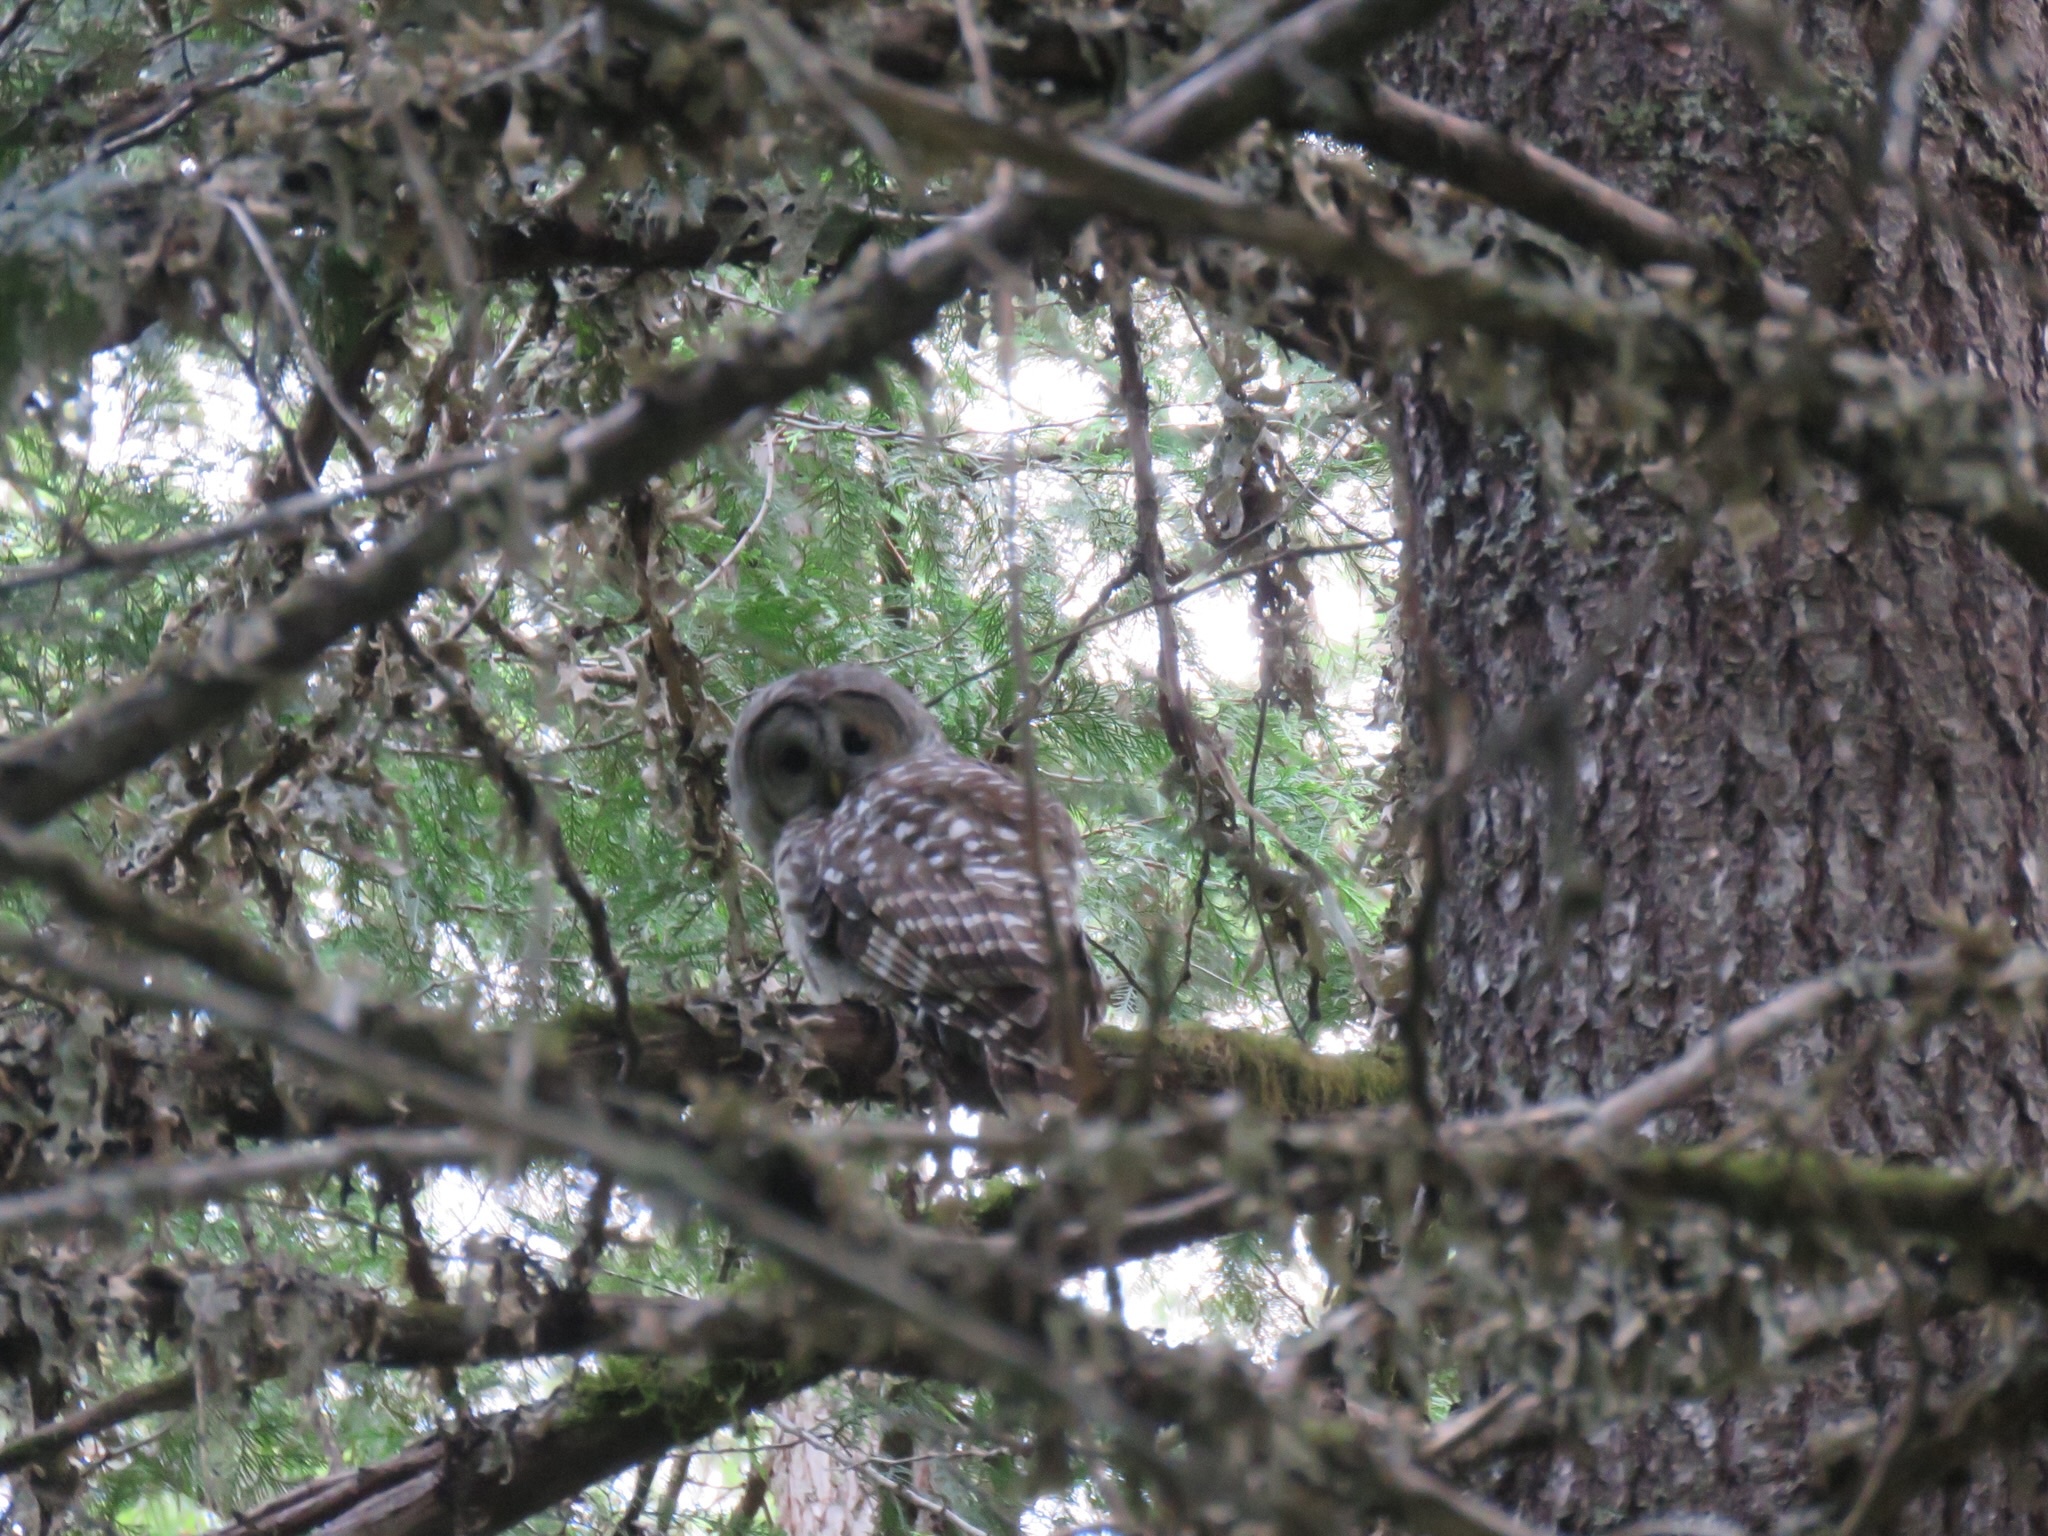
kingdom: Animalia
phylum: Chordata
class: Aves
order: Strigiformes
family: Strigidae
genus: Strix
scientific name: Strix varia
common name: Barred owl
